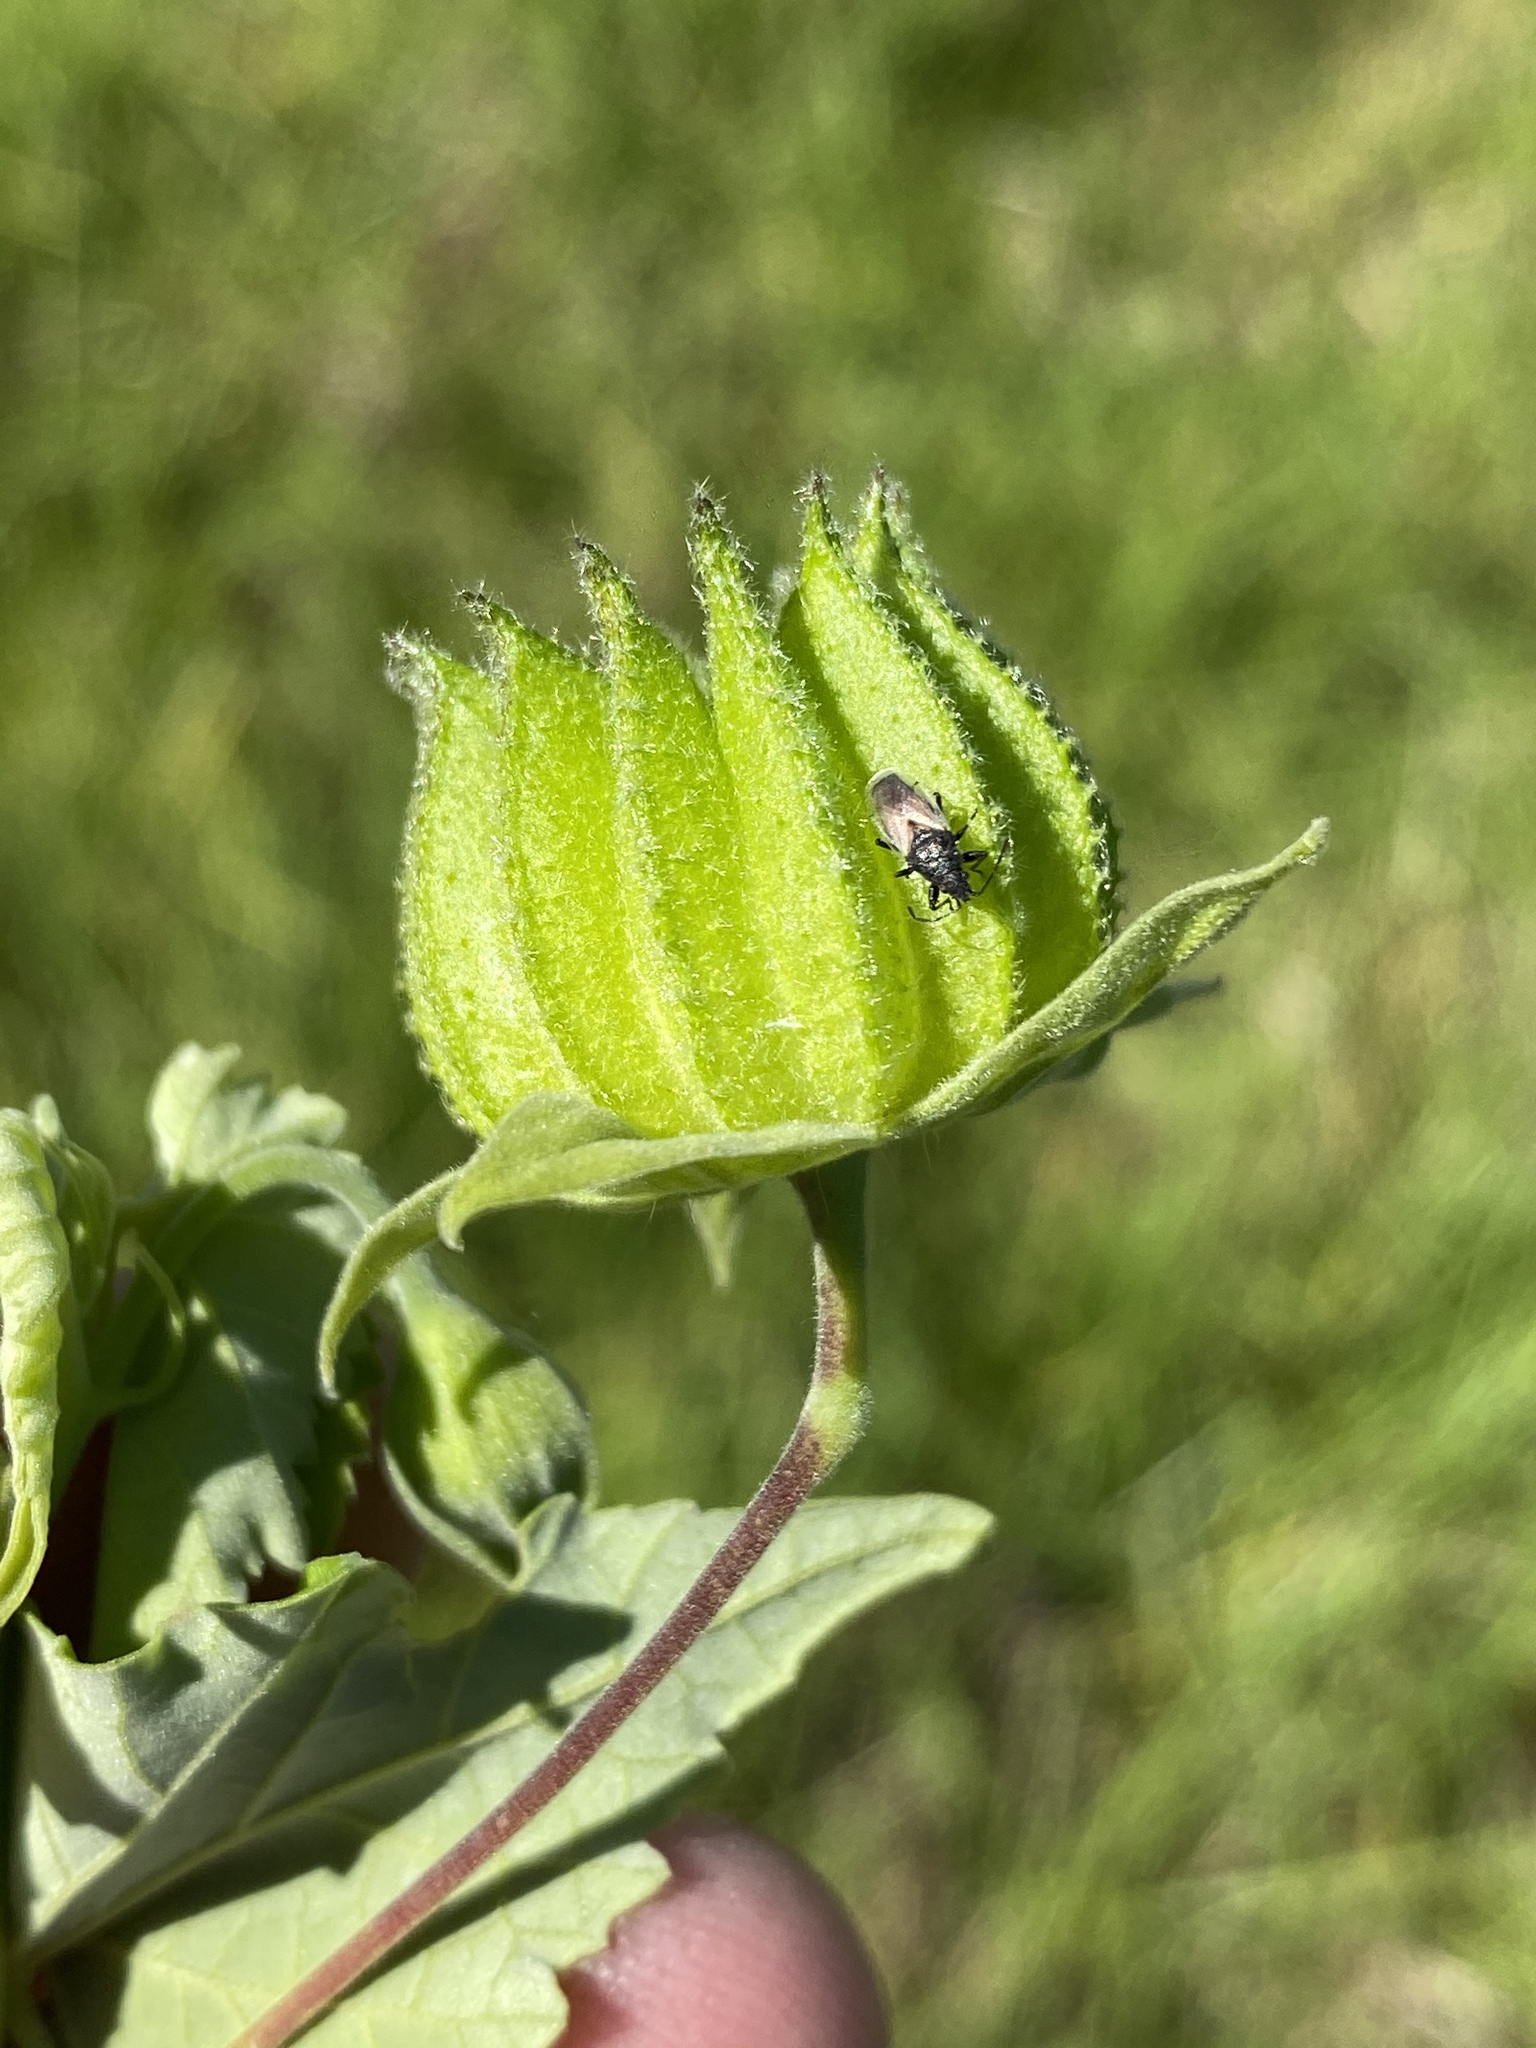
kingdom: Plantae
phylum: Tracheophyta
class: Magnoliopsida
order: Malvales
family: Malvaceae
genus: Abutilon
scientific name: Abutilon sonneratianum
